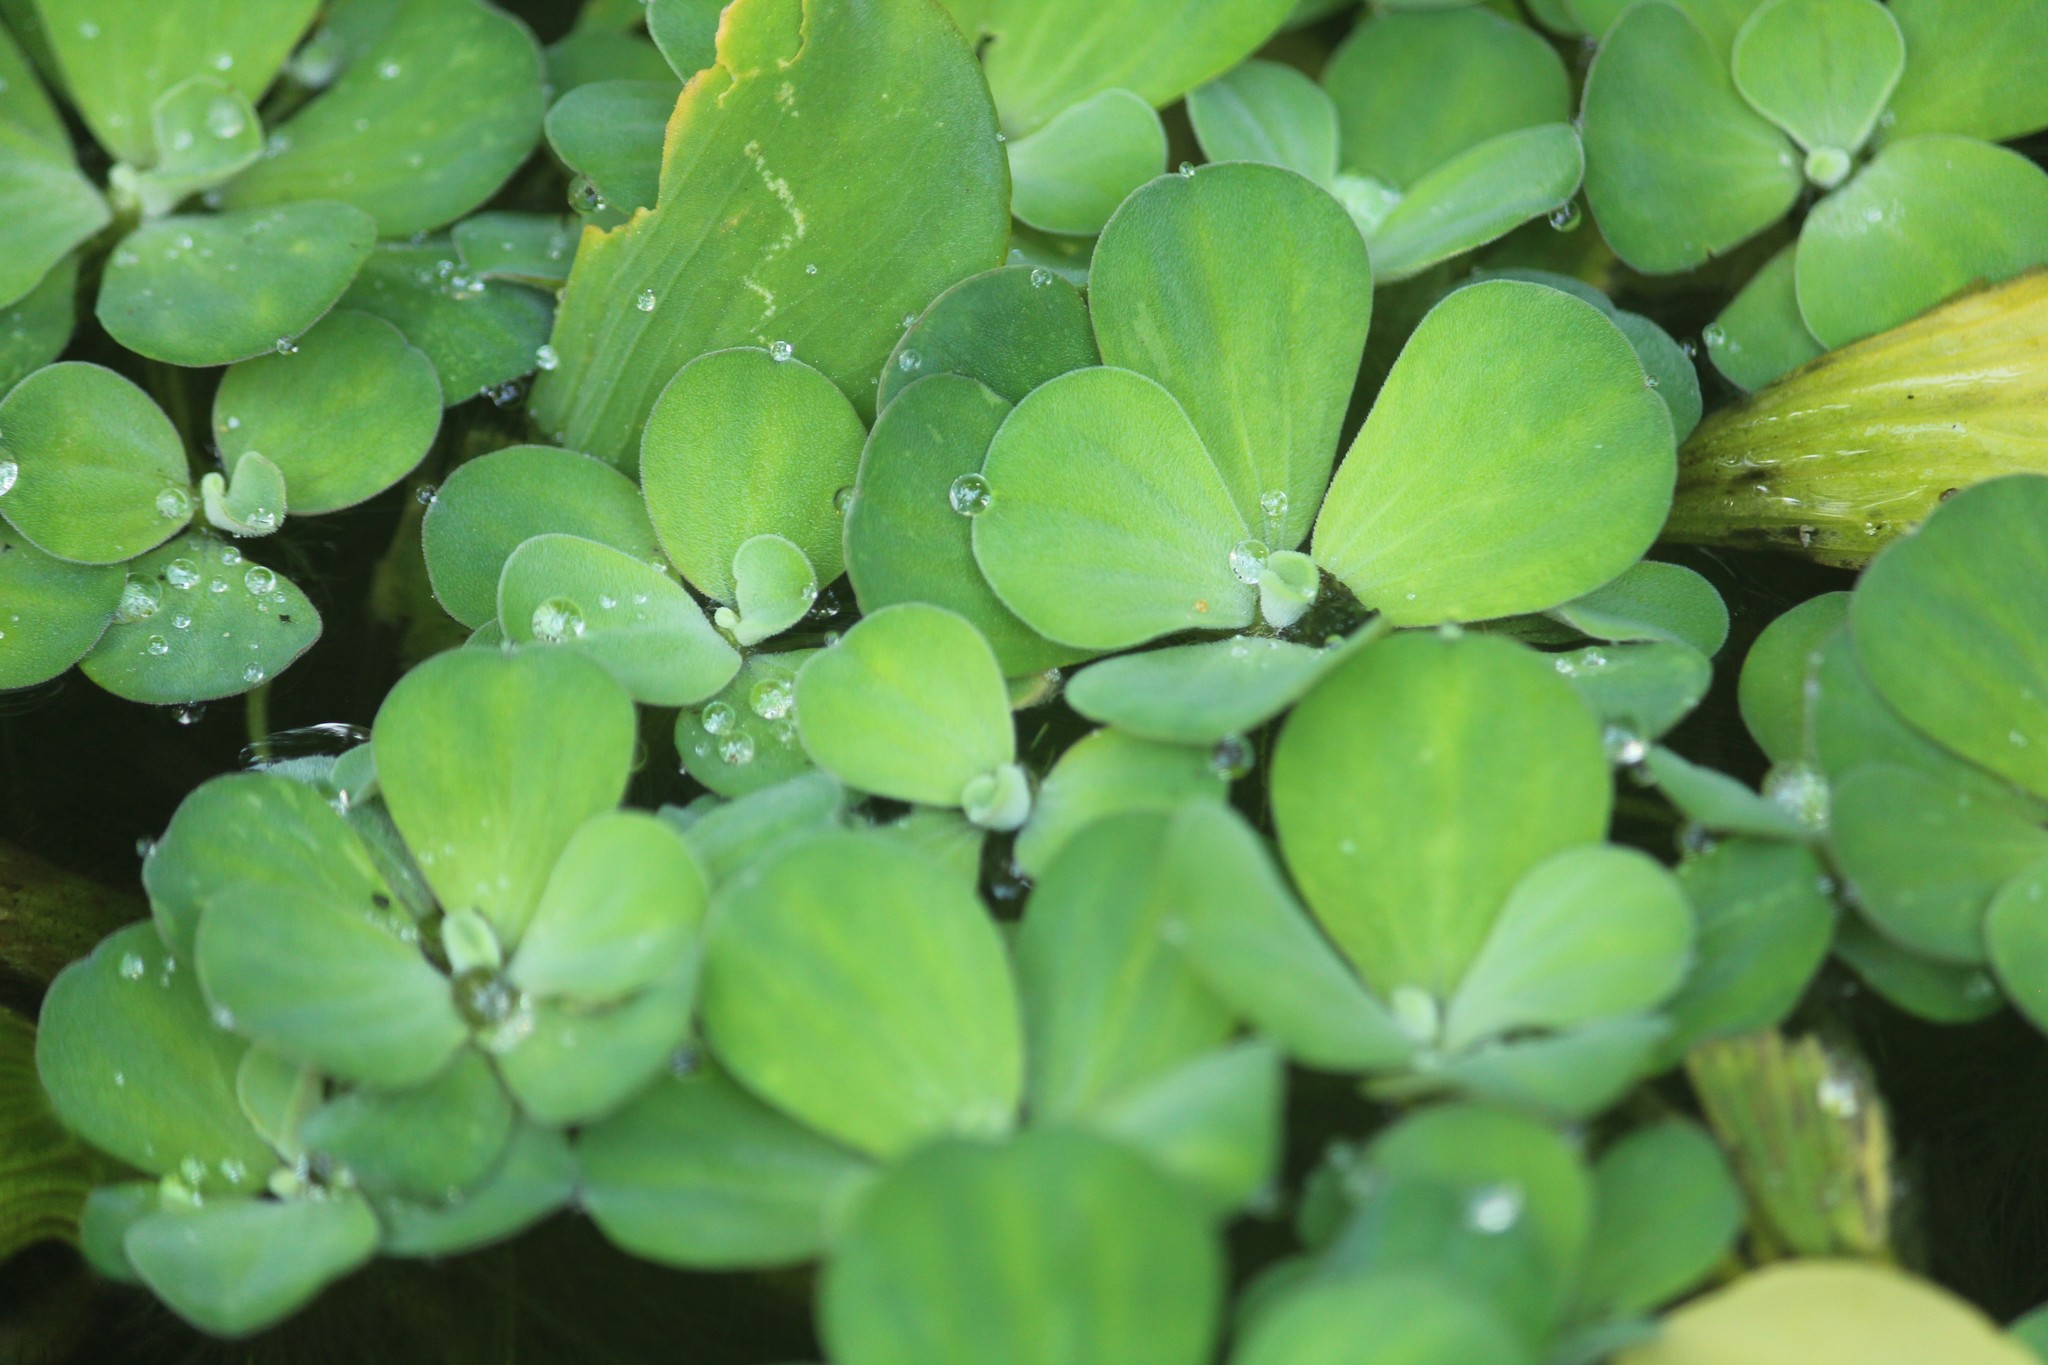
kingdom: Plantae
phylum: Tracheophyta
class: Liliopsida
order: Alismatales
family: Araceae
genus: Pistia
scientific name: Pistia stratiotes
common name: Water lettuce
